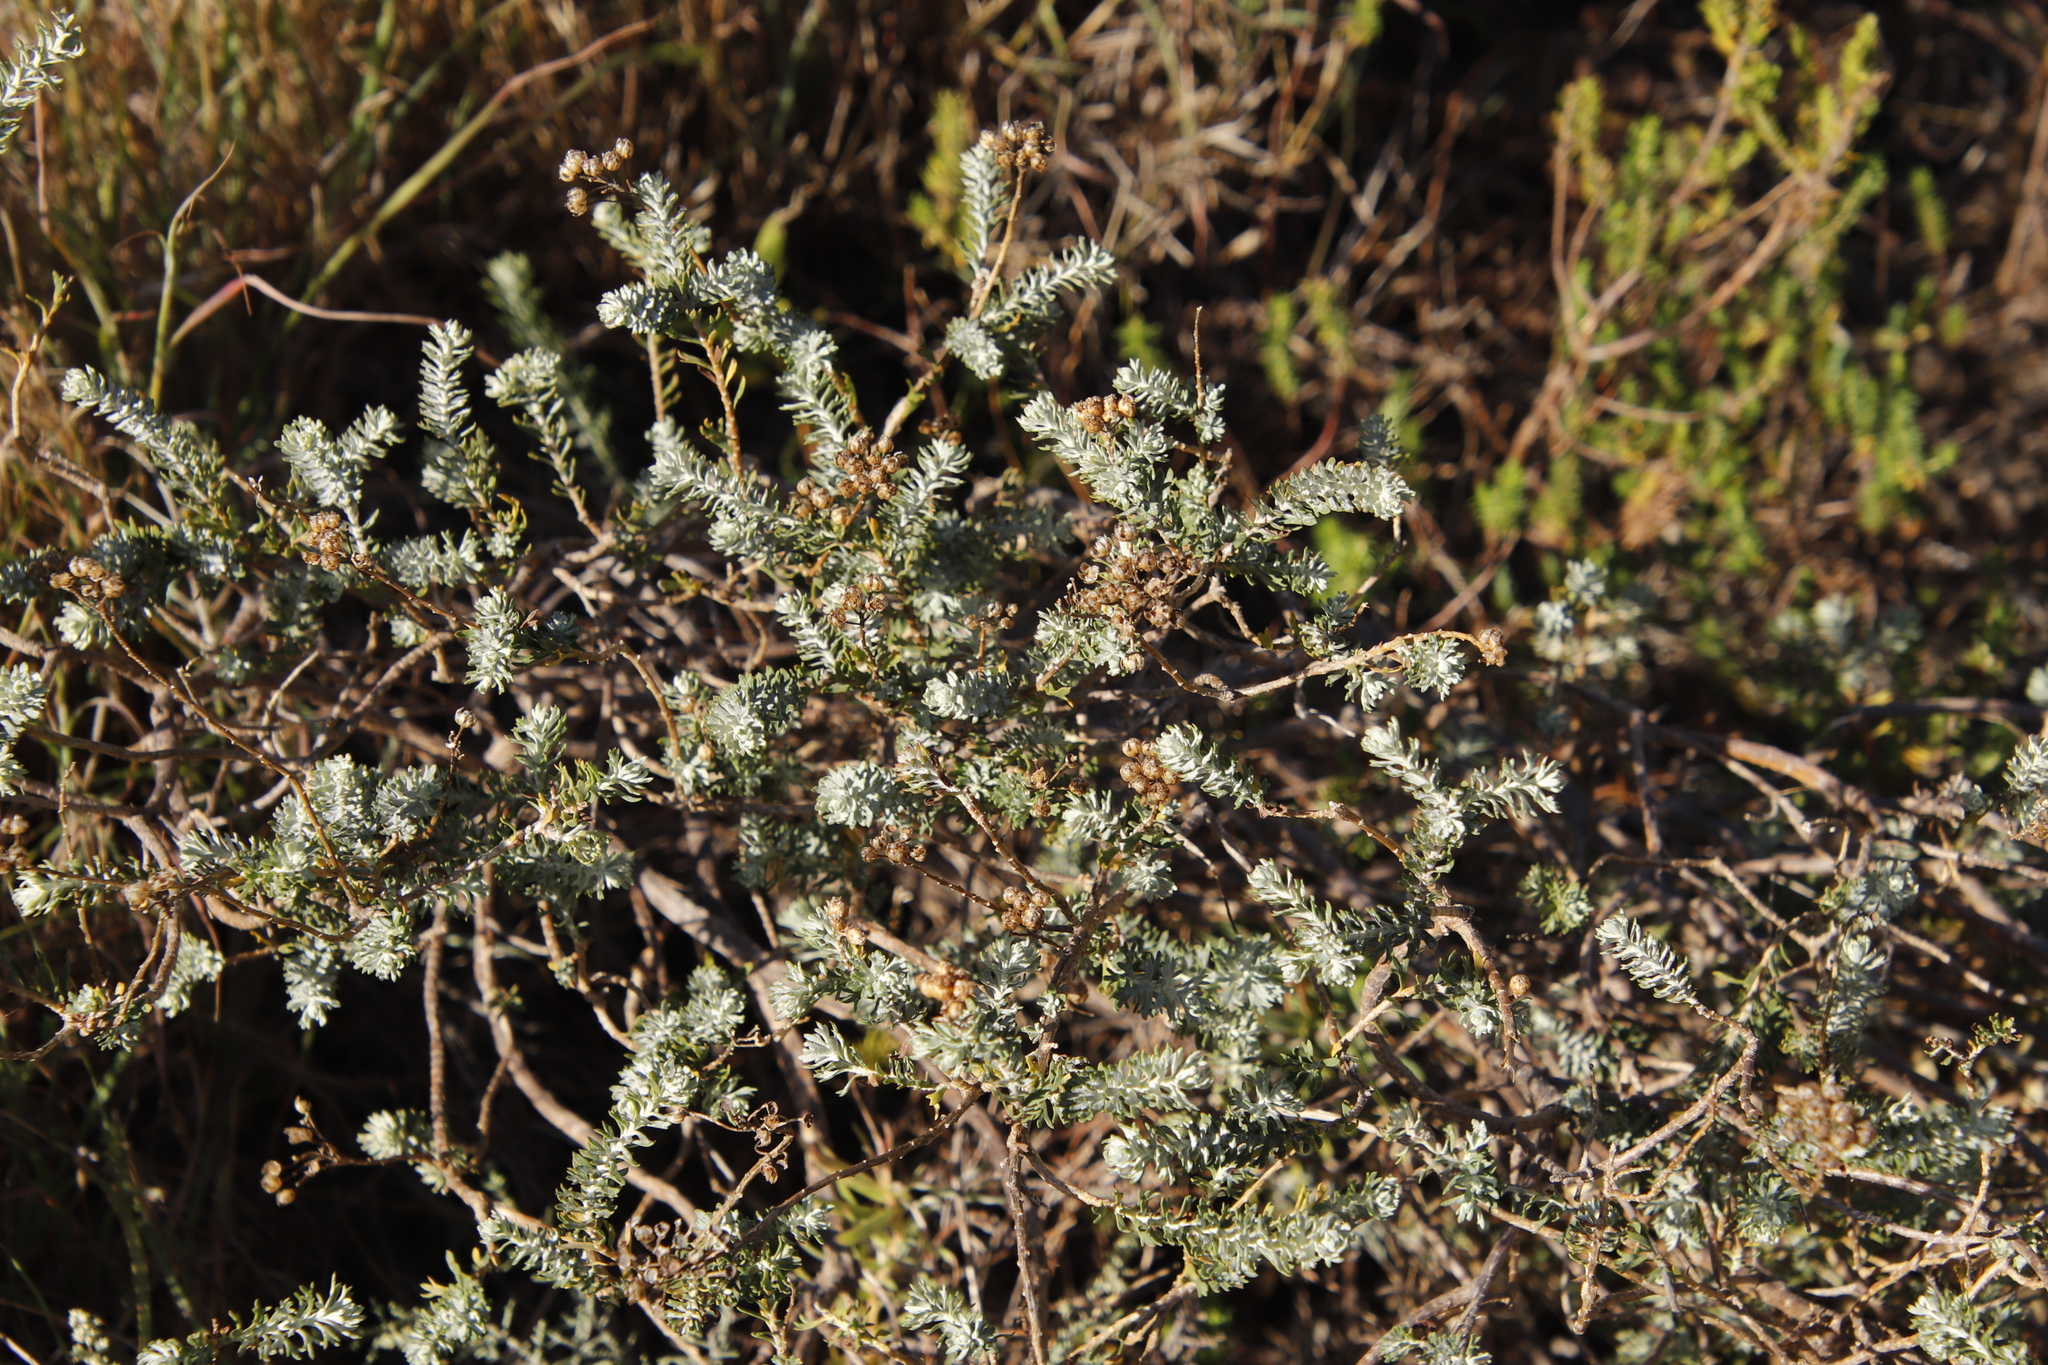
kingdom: Plantae
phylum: Tracheophyta
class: Magnoliopsida
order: Asterales
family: Asteraceae
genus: Athanasia
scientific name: Athanasia trifurcata
